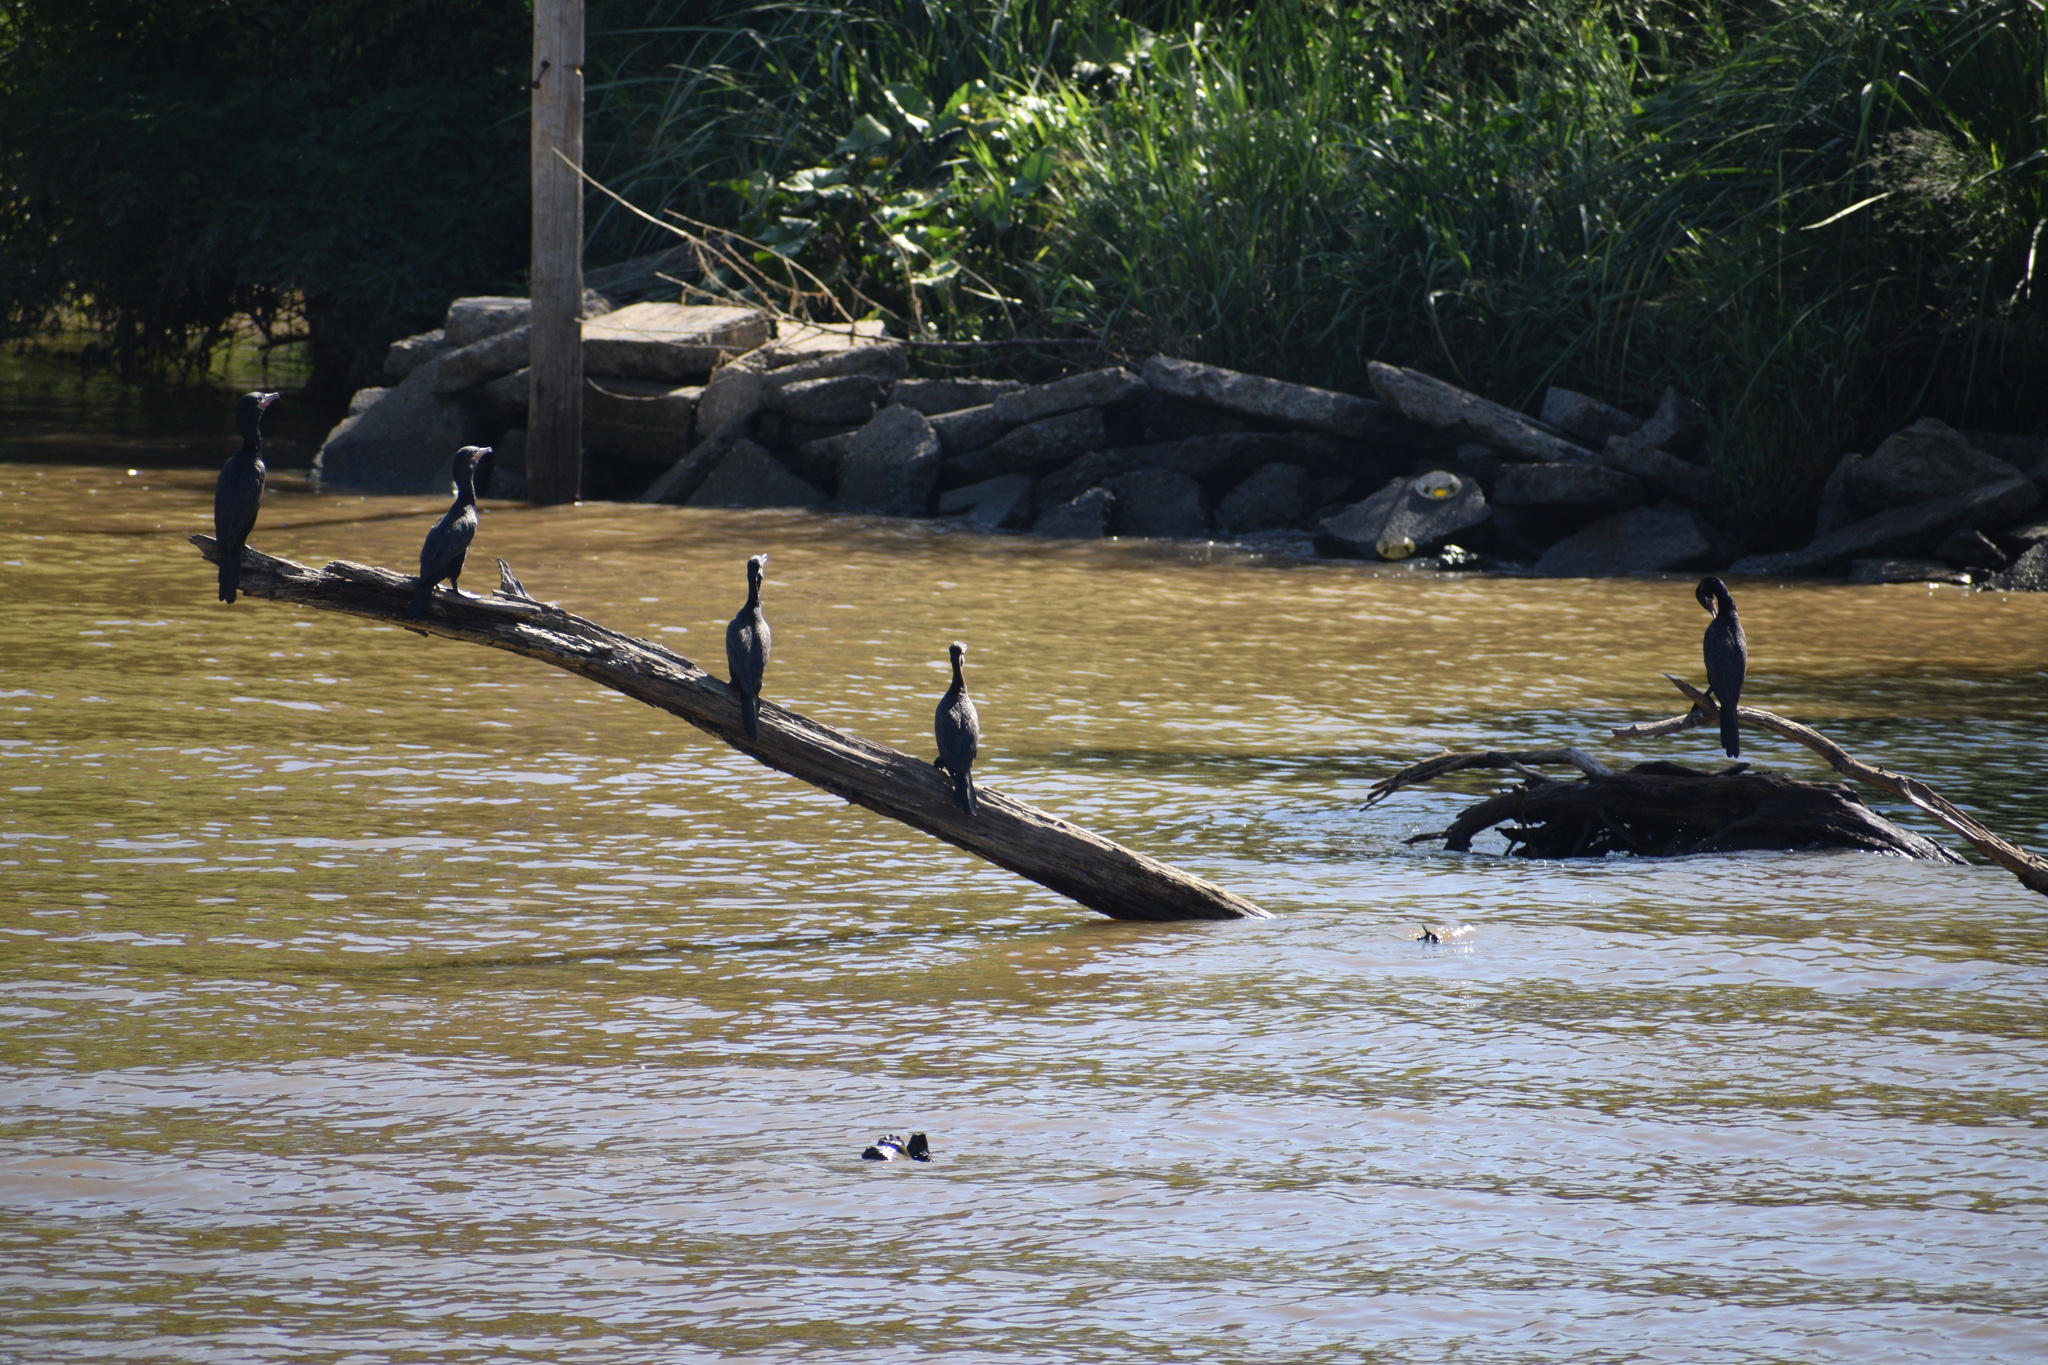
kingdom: Animalia
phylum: Chordata
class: Aves
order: Suliformes
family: Phalacrocoracidae
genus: Phalacrocorax
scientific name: Phalacrocorax brasilianus
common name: Neotropic cormorant
